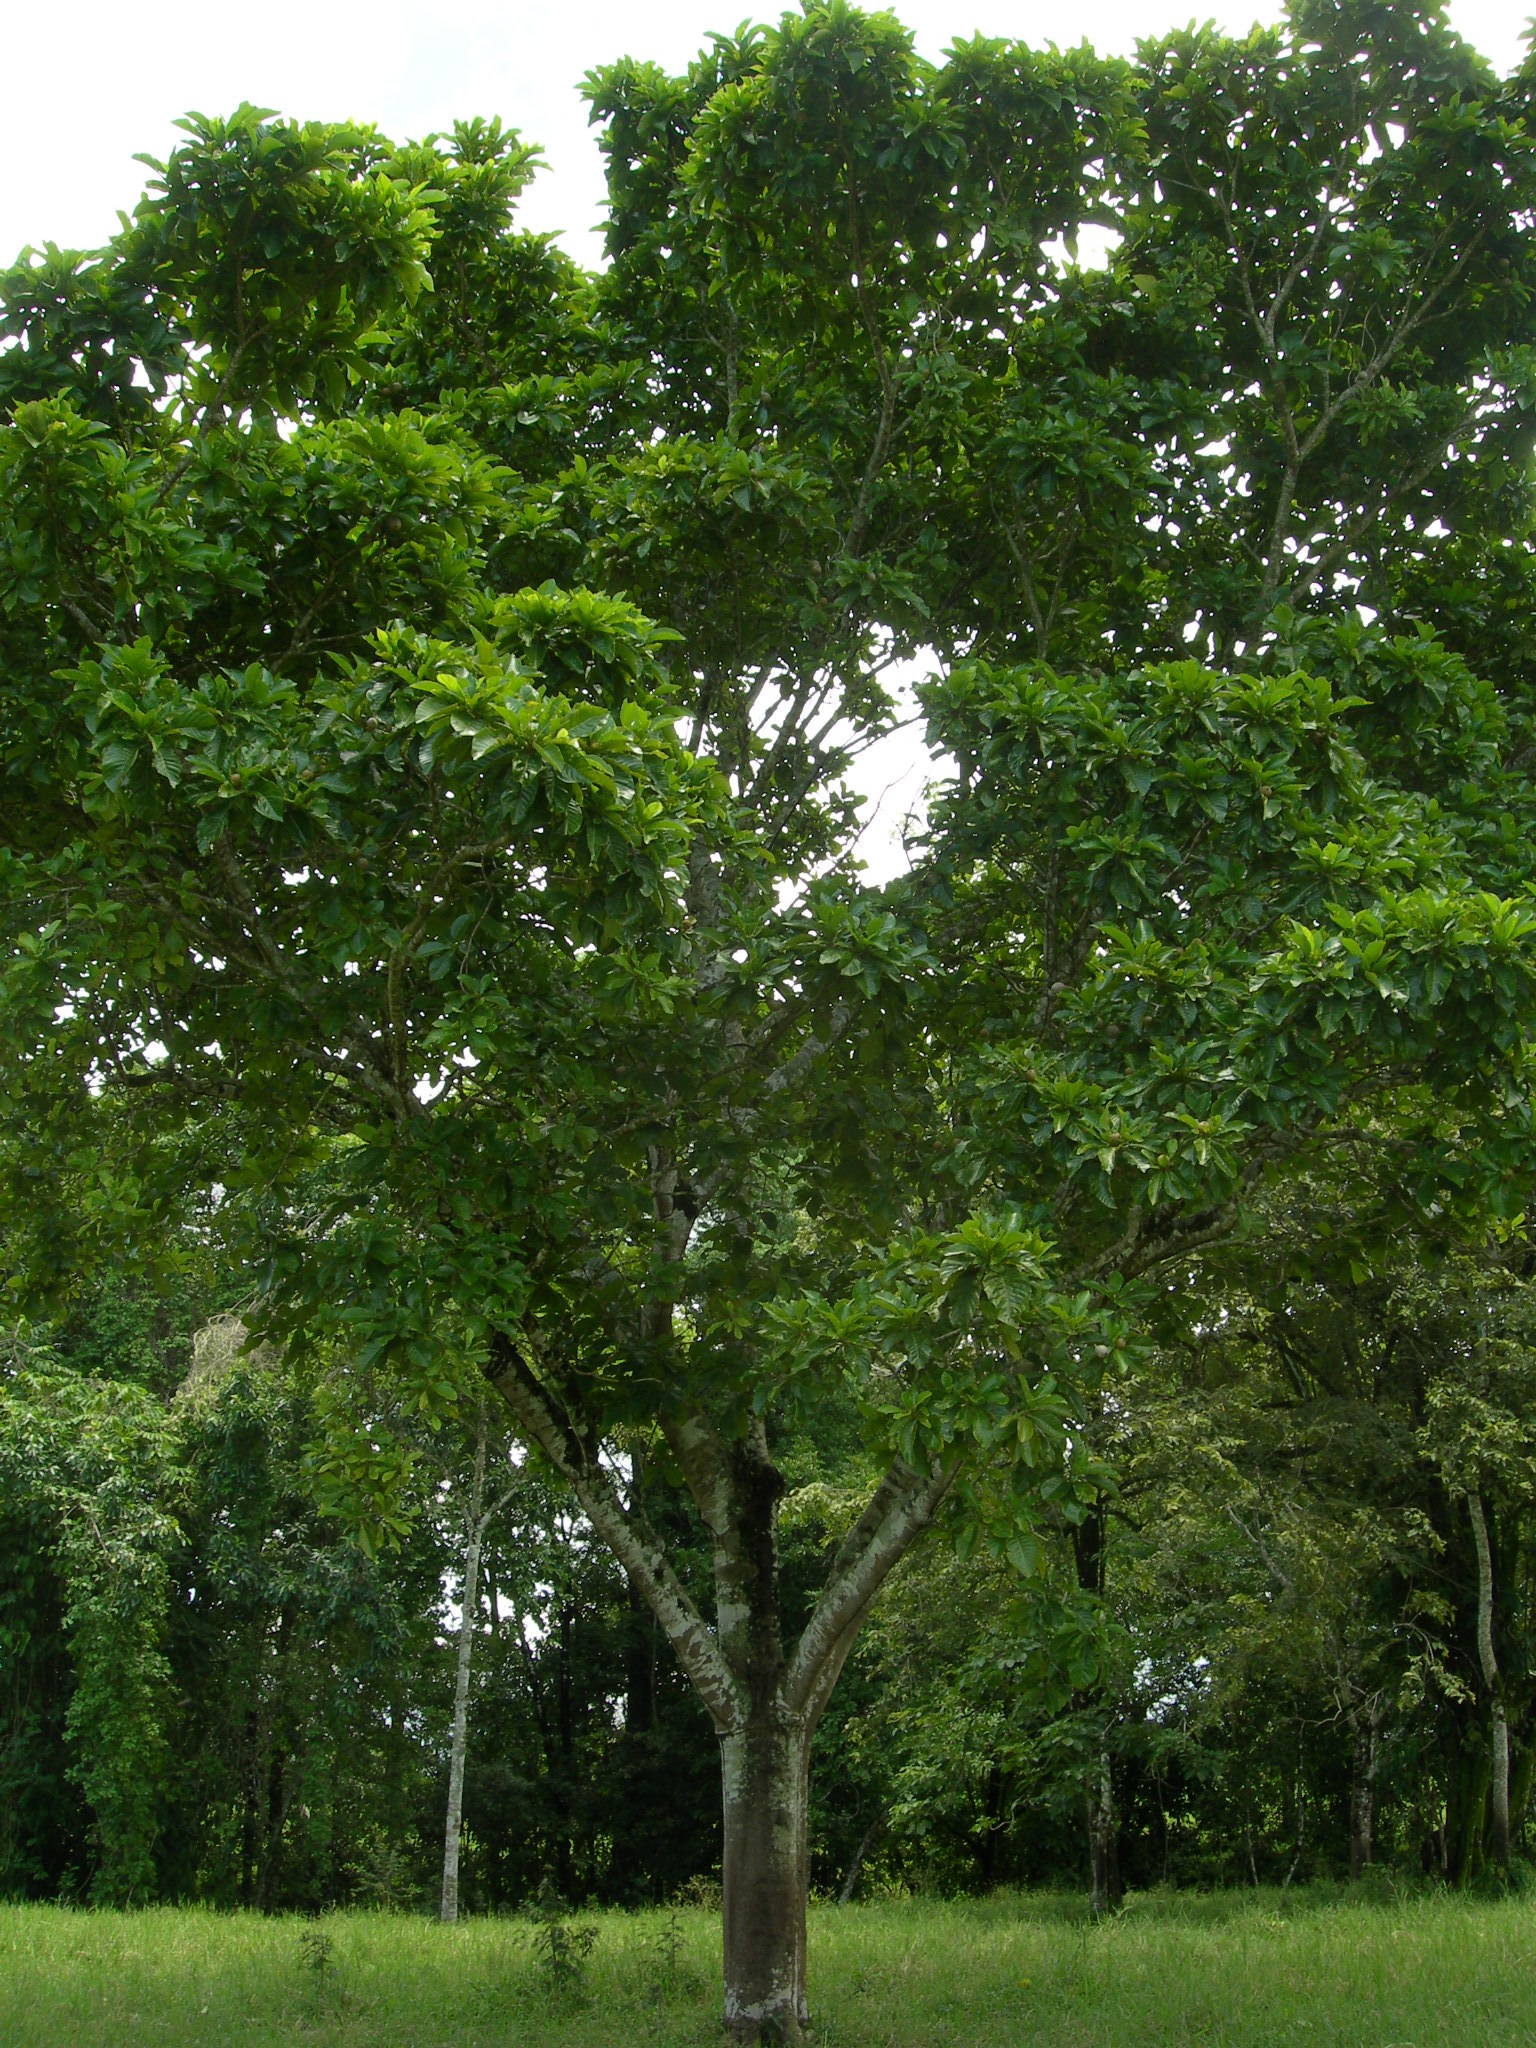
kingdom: Plantae
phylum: Tracheophyta
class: Magnoliopsida
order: Gentianales
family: Rubiaceae
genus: Genipa
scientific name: Genipa americana
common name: Genipap
